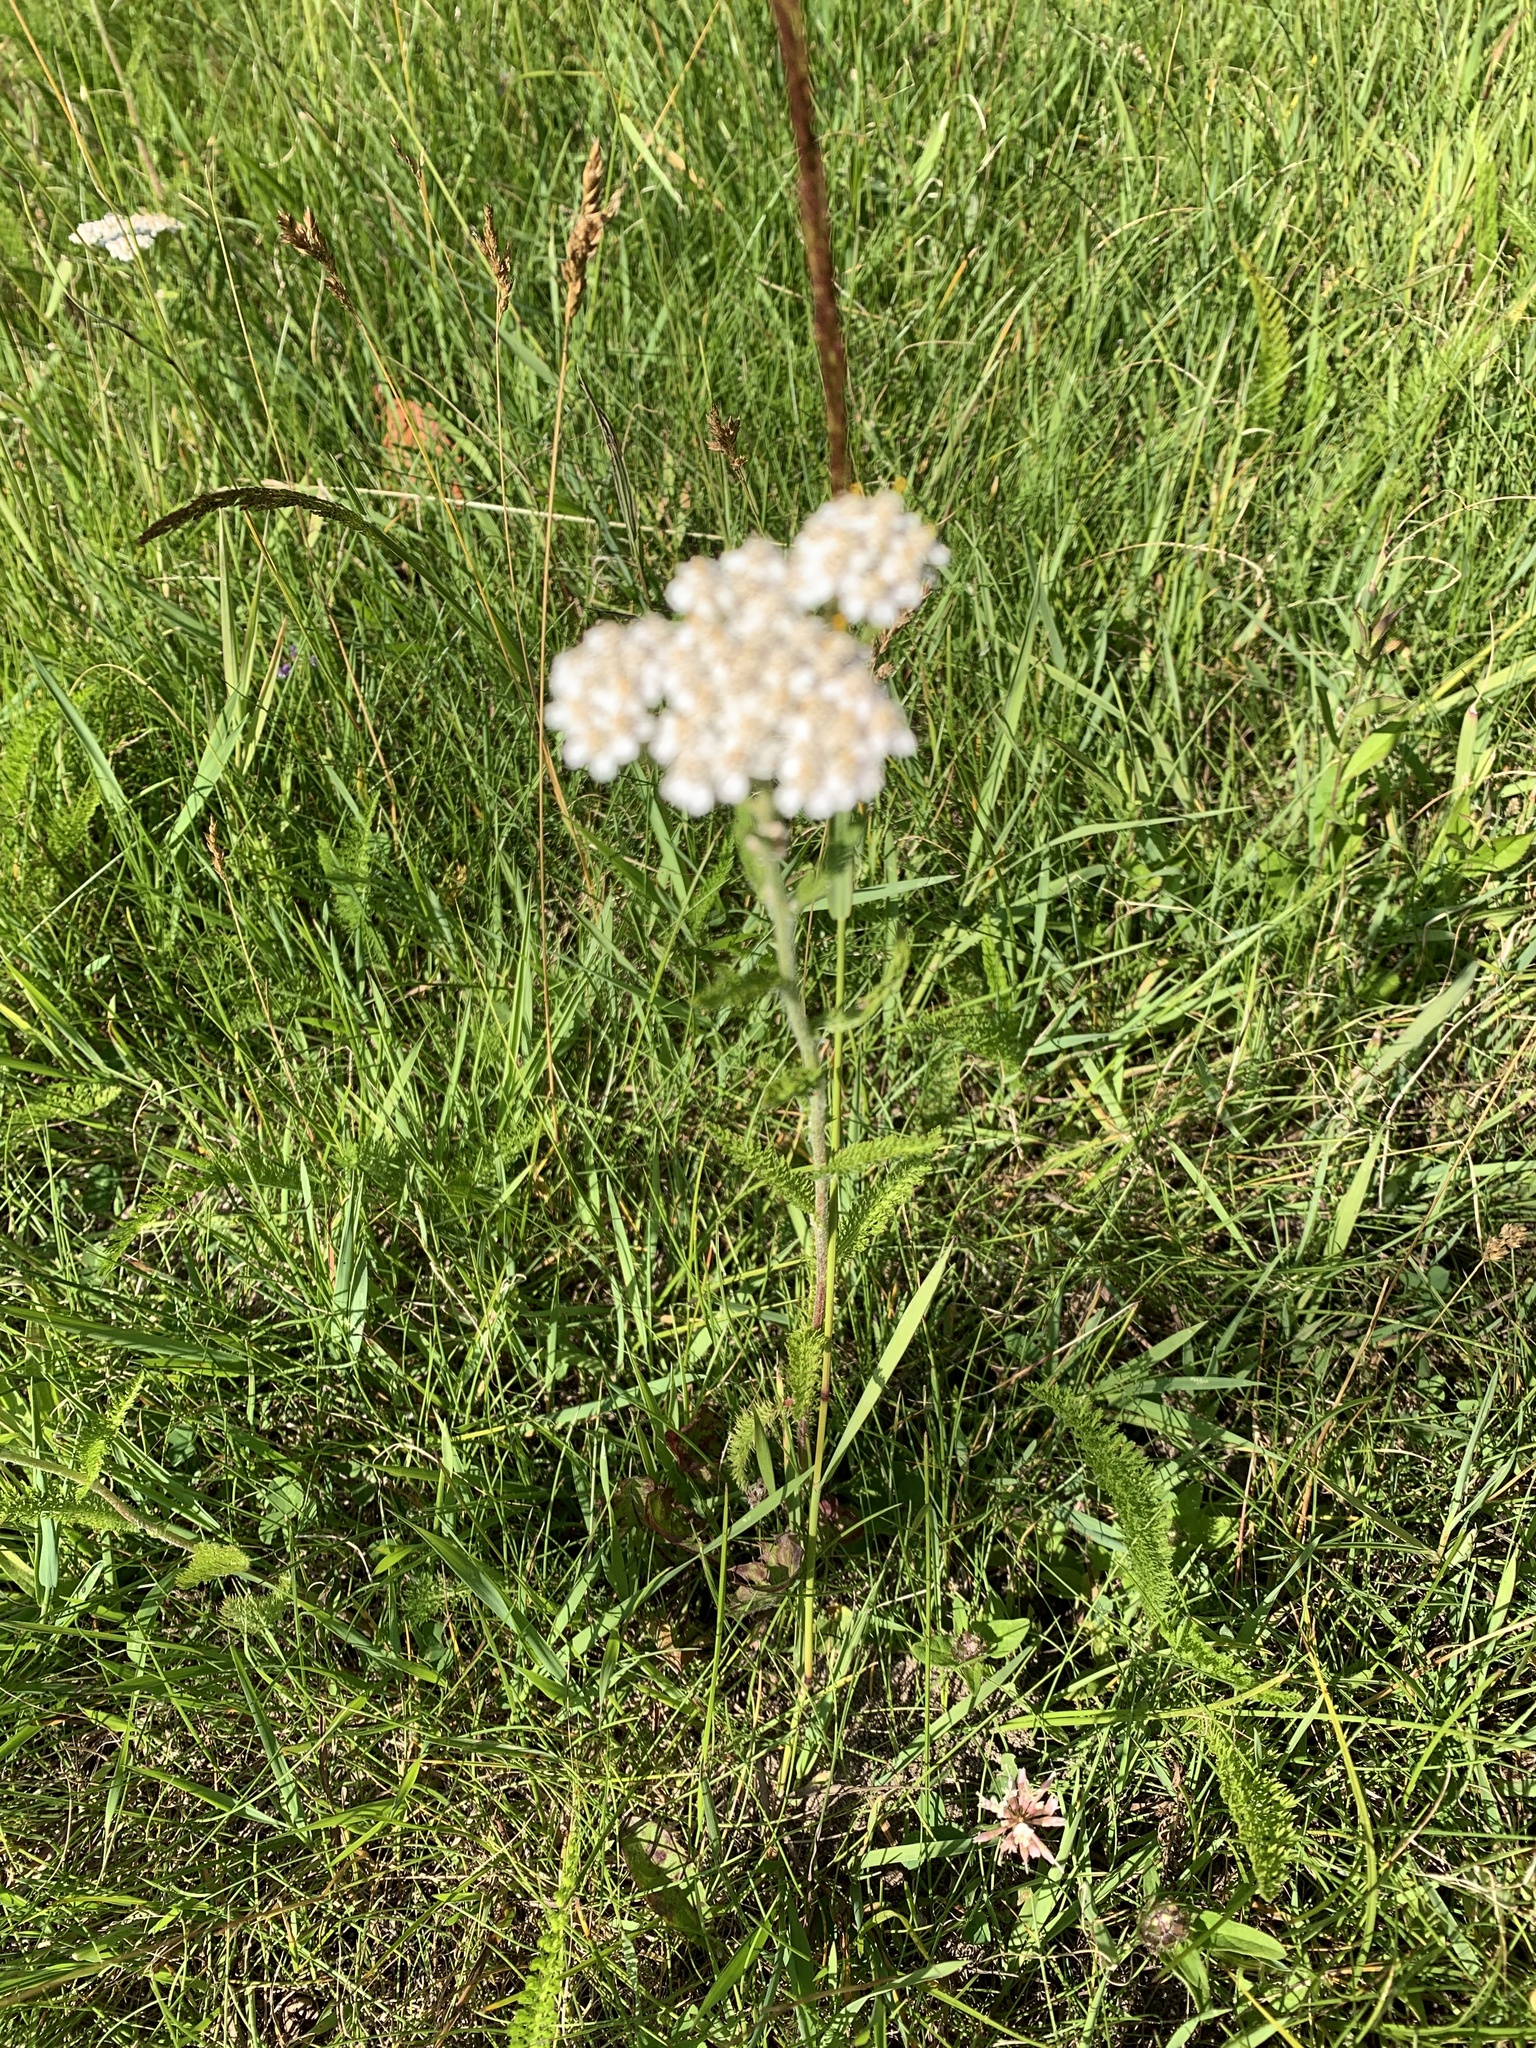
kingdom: Plantae
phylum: Tracheophyta
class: Magnoliopsida
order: Asterales
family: Asteraceae
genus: Achillea
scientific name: Achillea millefolium
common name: Yarrow
